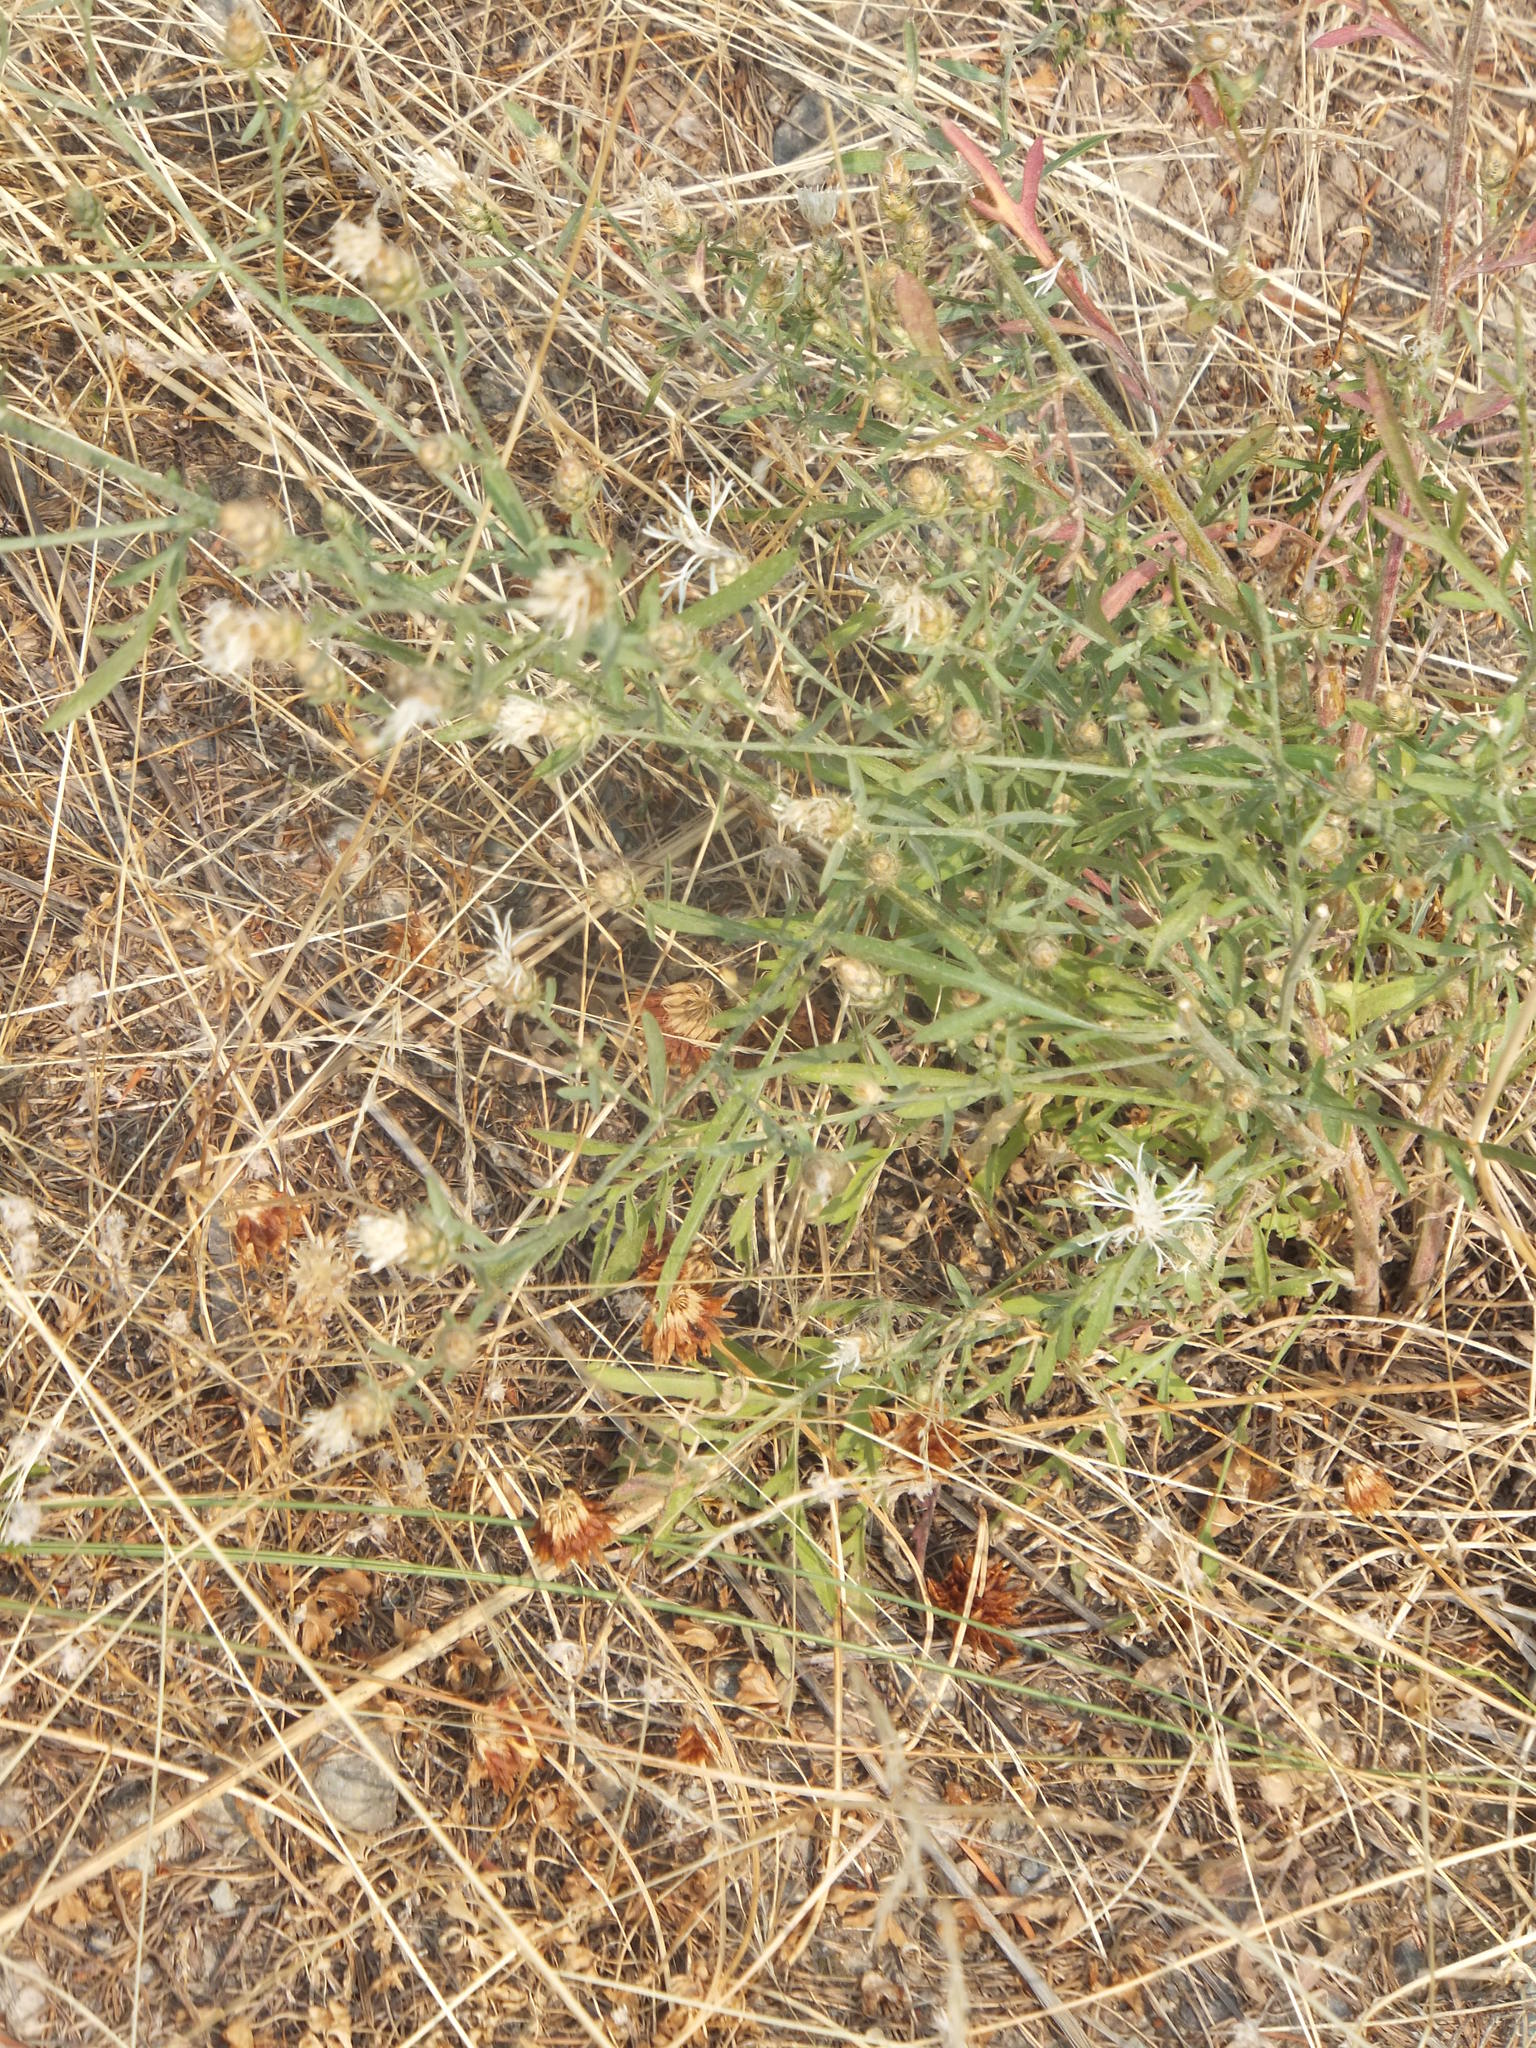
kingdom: Plantae
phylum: Tracheophyta
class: Magnoliopsida
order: Asterales
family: Asteraceae
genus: Centaurea
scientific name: Centaurea diffusa
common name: Diffuse knapweed
